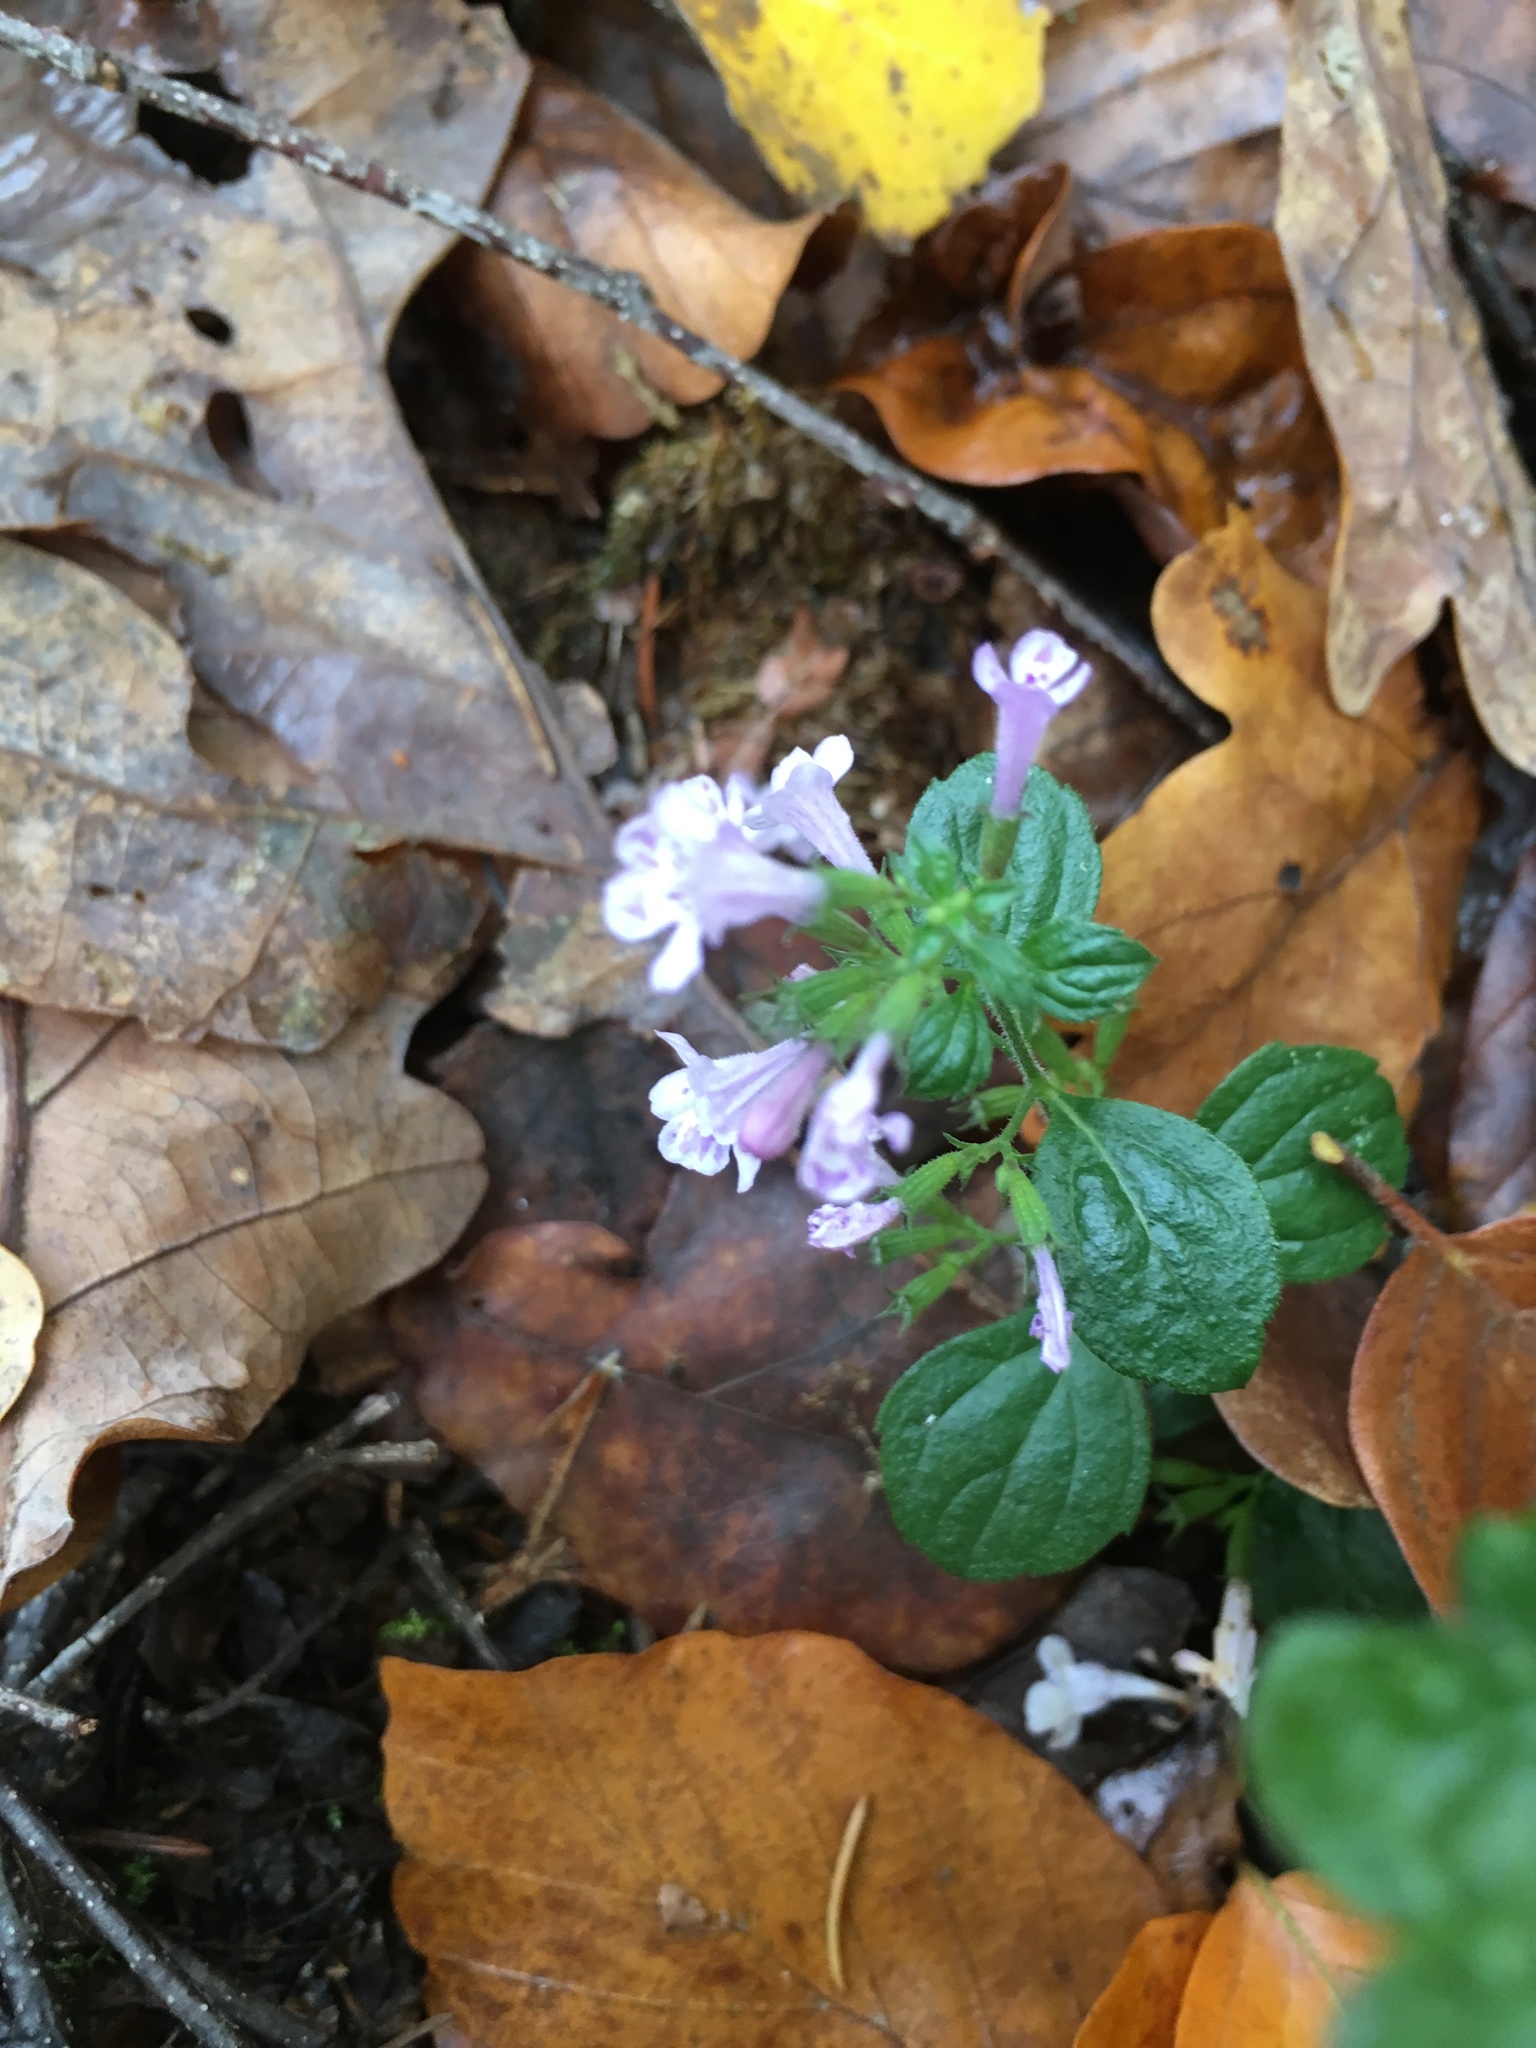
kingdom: Plantae
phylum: Tracheophyta
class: Magnoliopsida
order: Lamiales
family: Lamiaceae
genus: Clinopodium
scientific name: Clinopodium nepeta
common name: Lesser calamint
